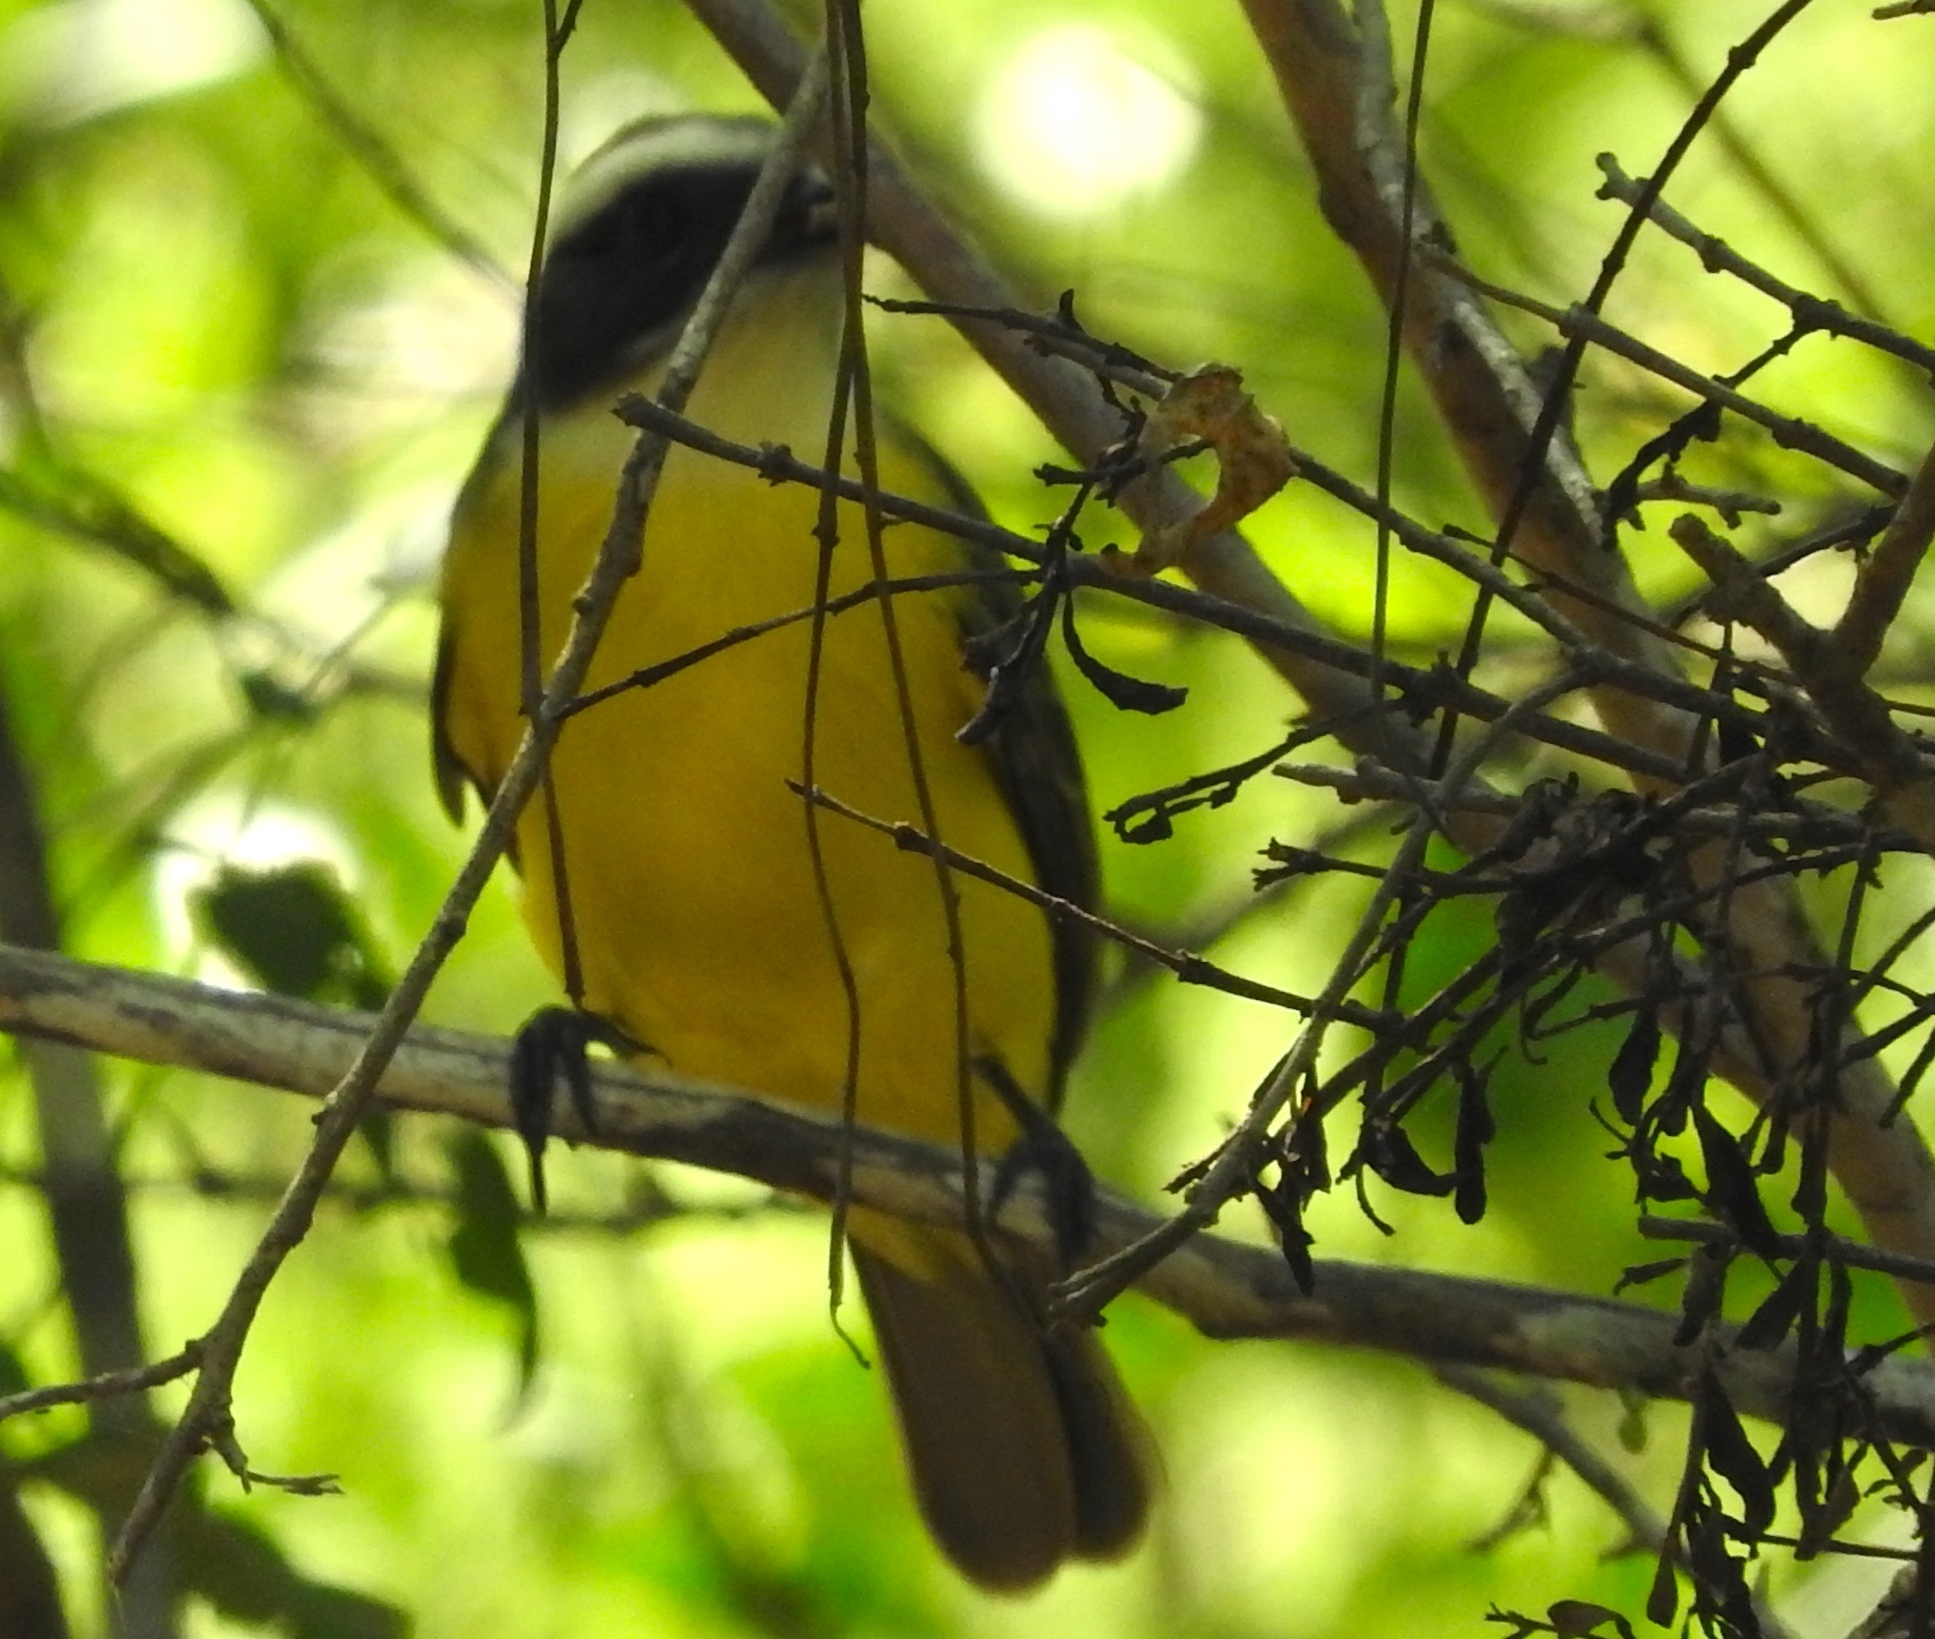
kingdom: Animalia
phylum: Chordata
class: Aves
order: Passeriformes
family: Tyrannidae
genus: Myiozetetes
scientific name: Myiozetetes similis
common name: Social flycatcher
